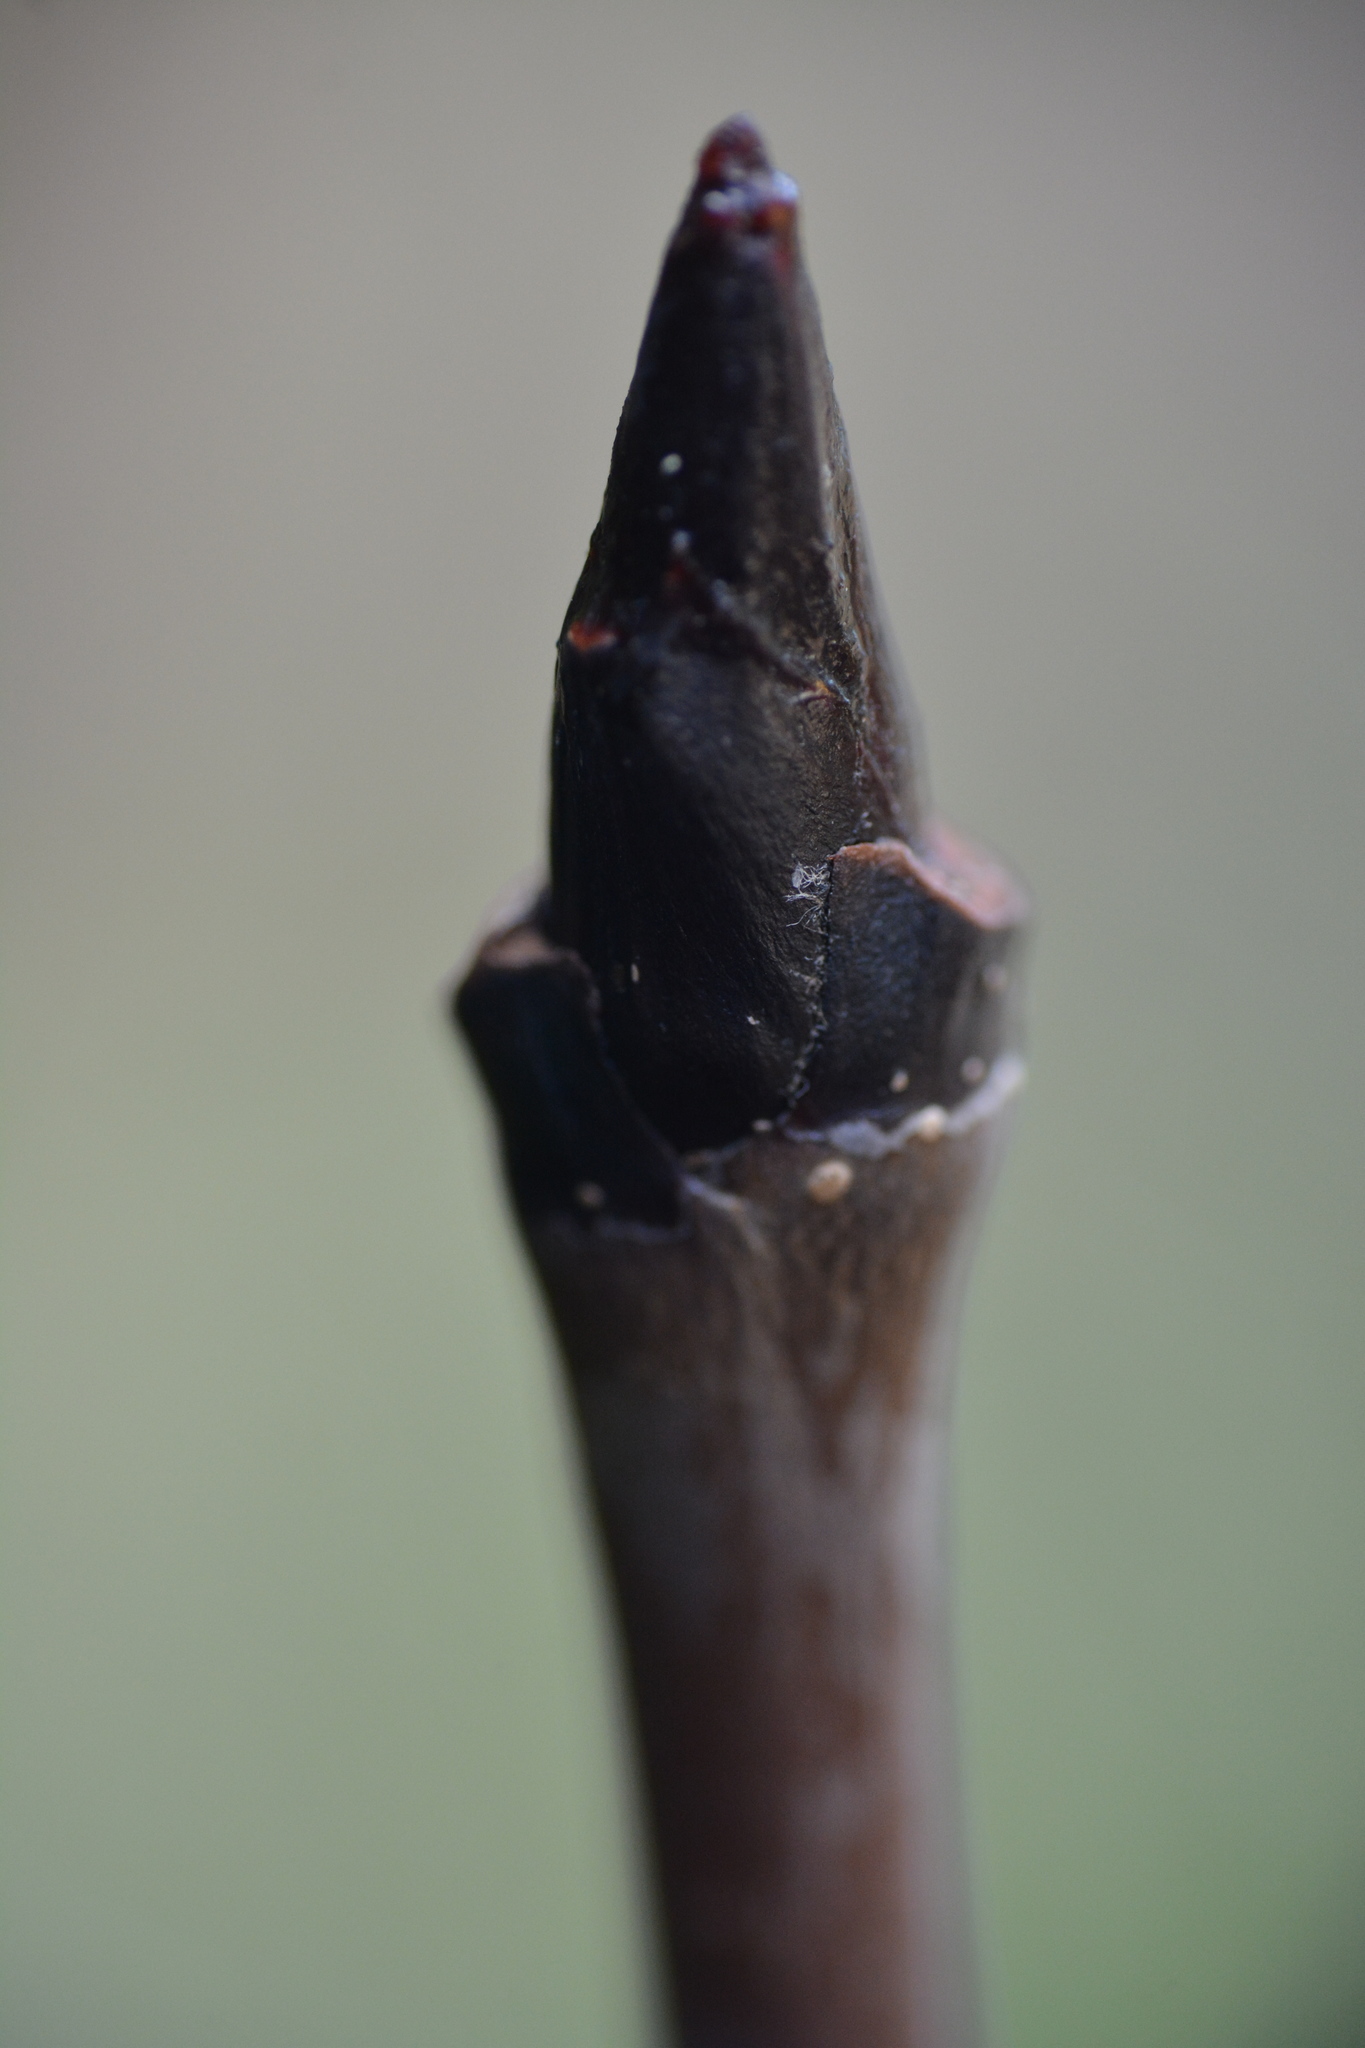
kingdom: Plantae
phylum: Tracheophyta
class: Magnoliopsida
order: Rosales
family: Rosaceae
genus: Sorbus
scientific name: Sorbus americana
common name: American mountain-ash
